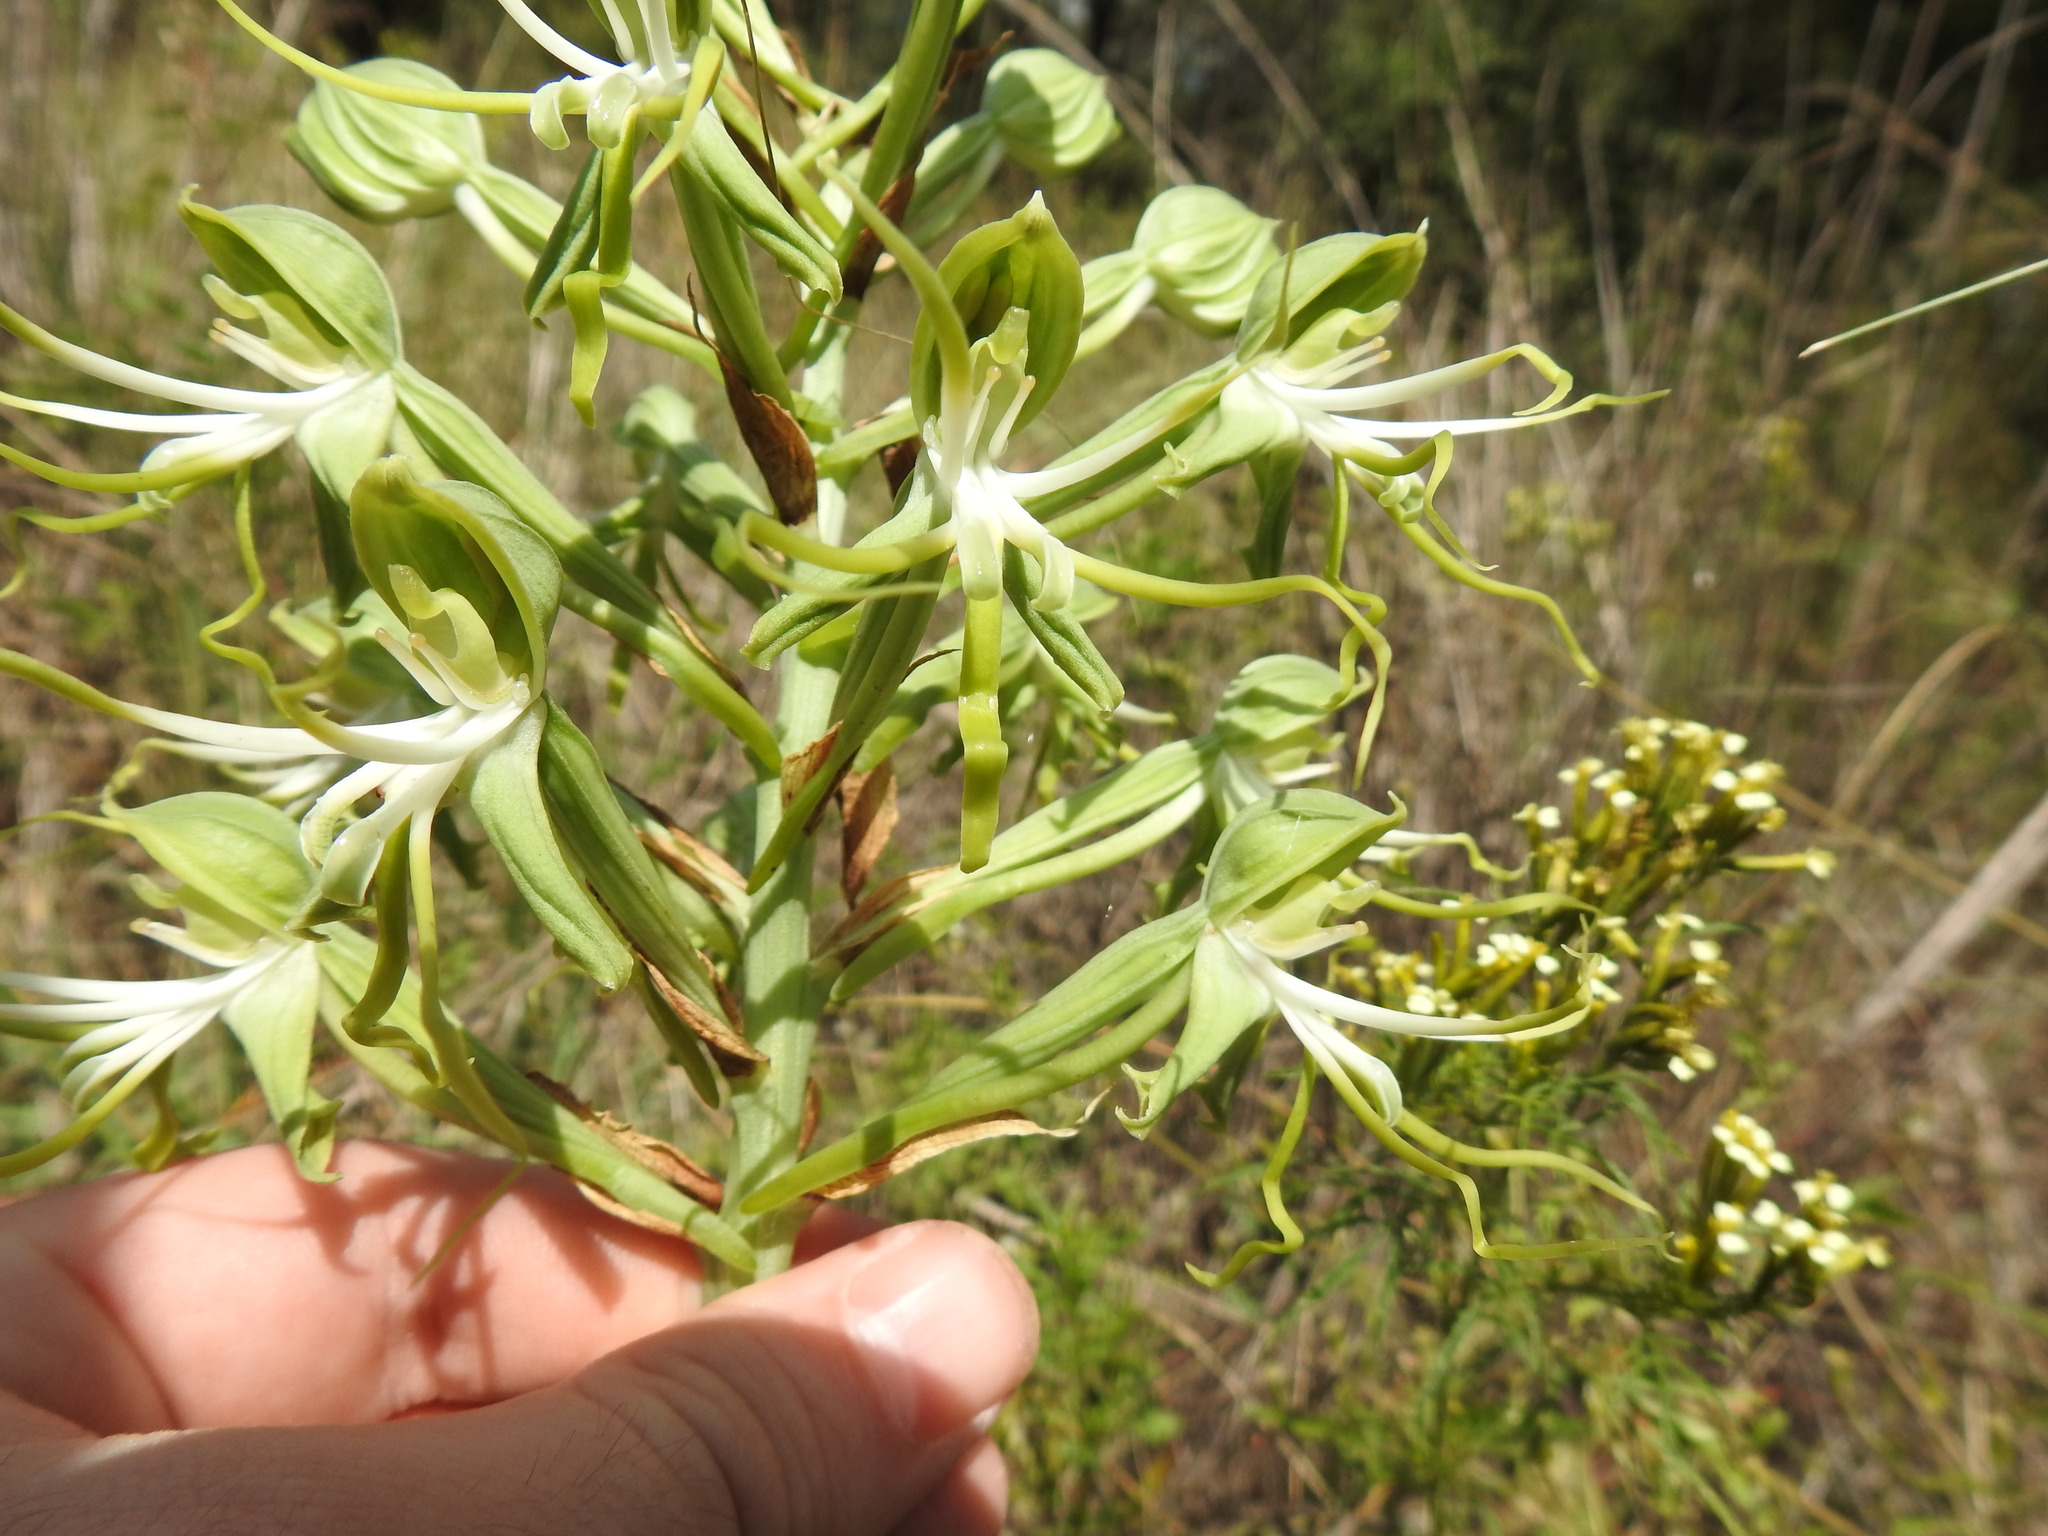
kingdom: Plantae
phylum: Tracheophyta
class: Liliopsida
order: Asparagales
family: Orchidaceae
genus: Bonatea
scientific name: Bonatea antennifera
